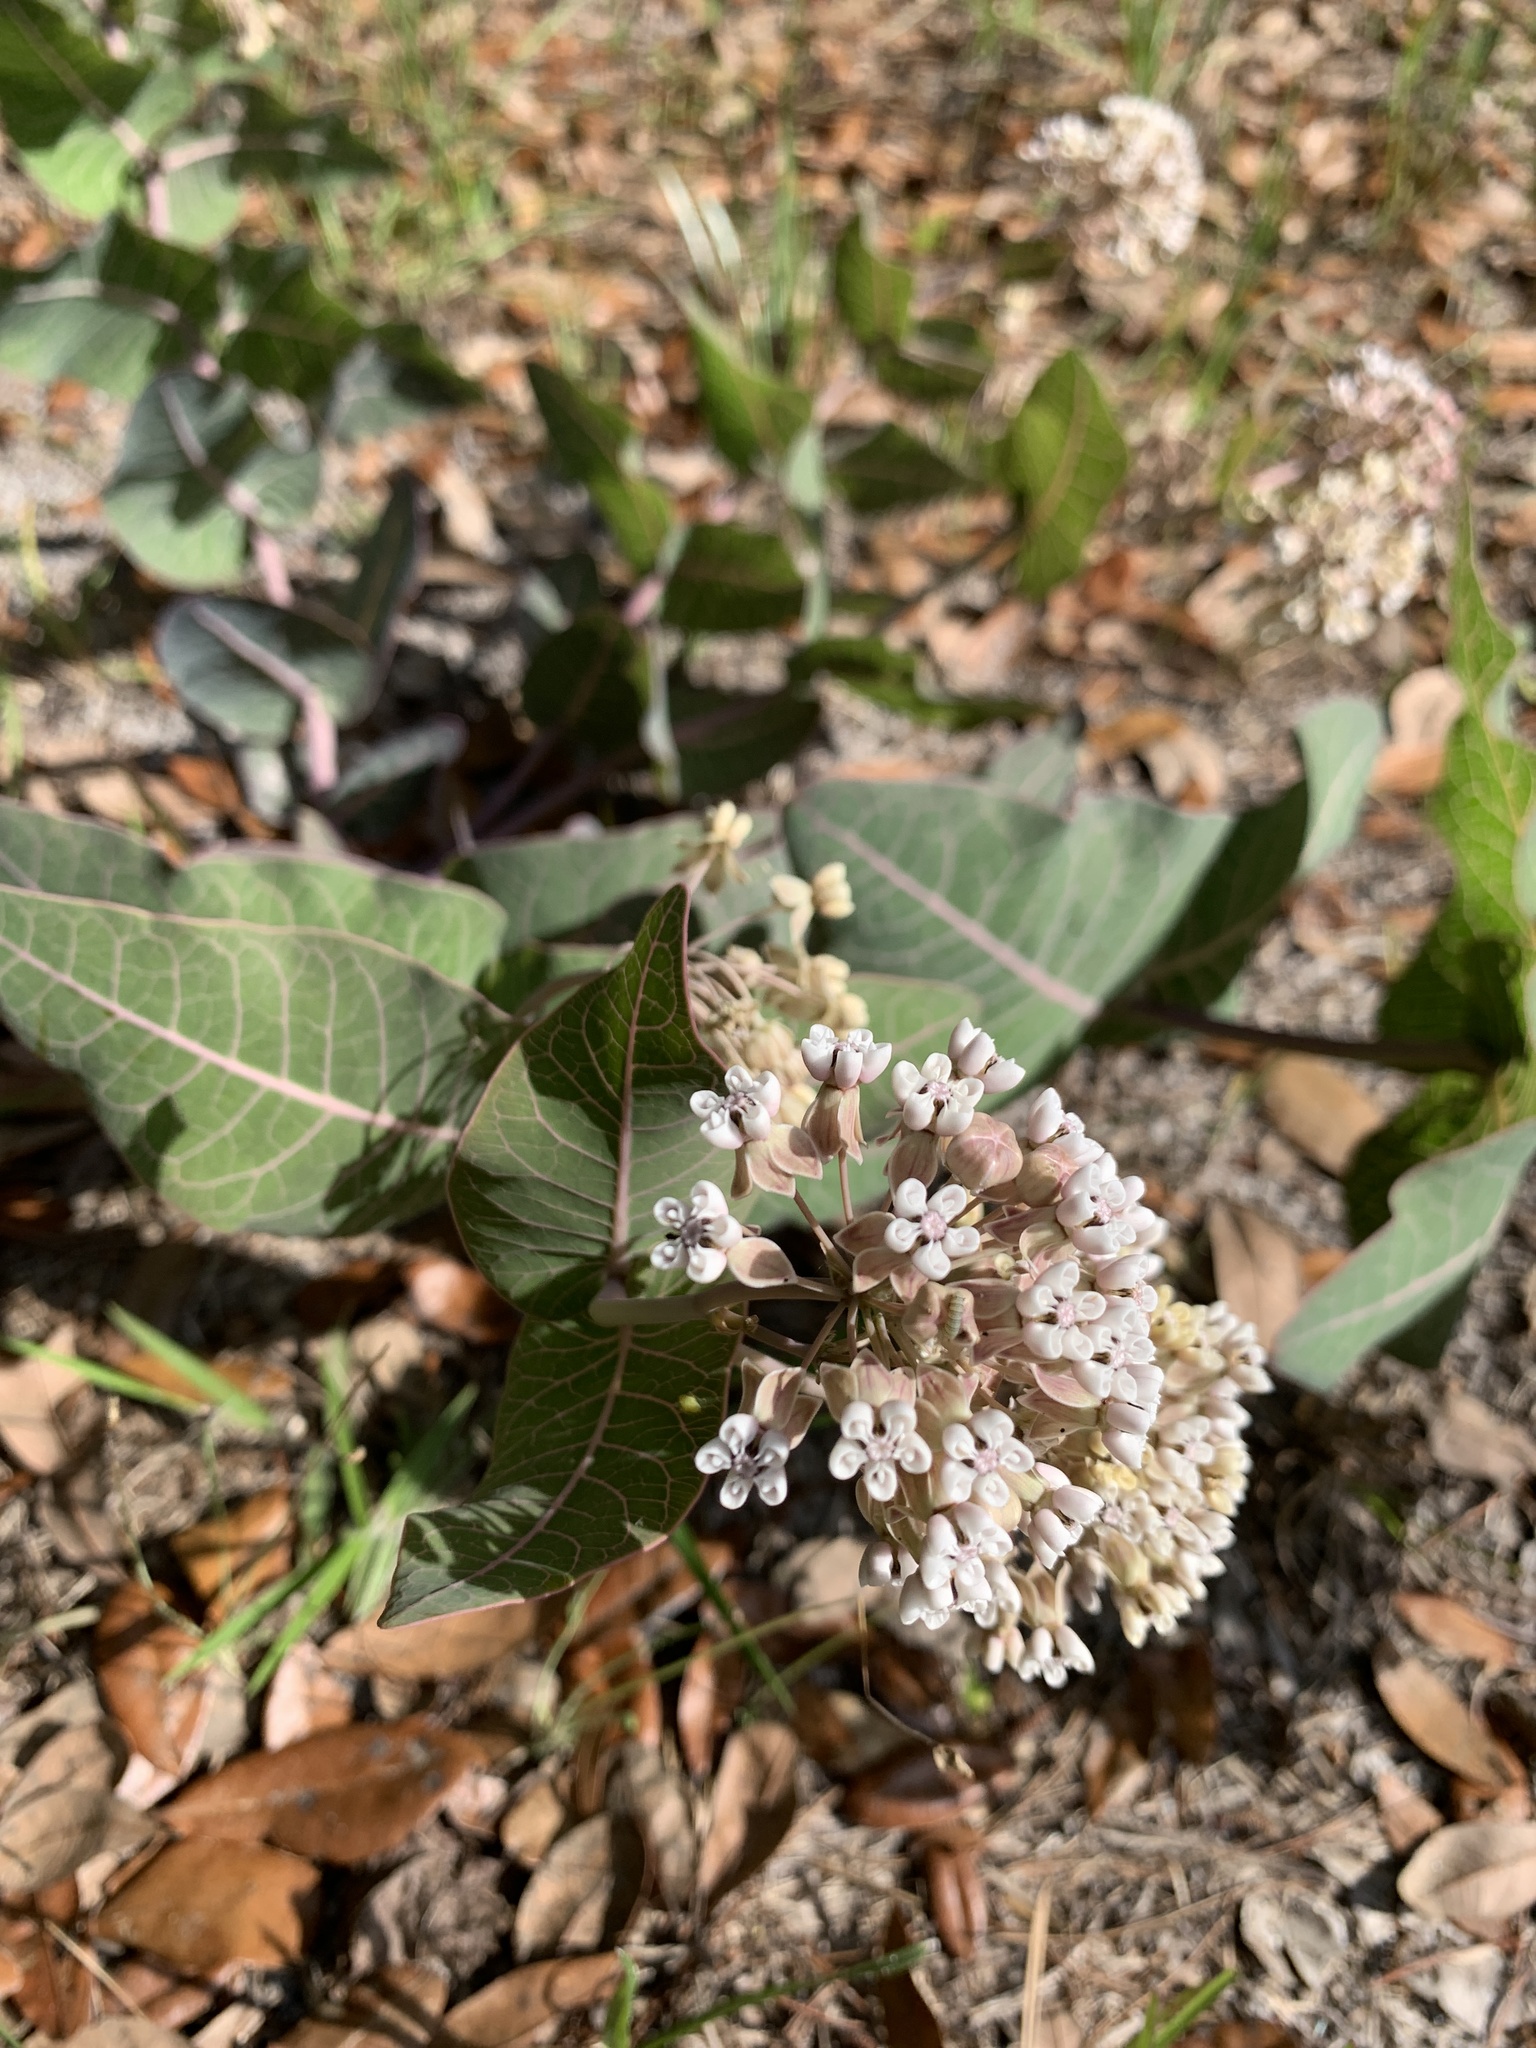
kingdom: Plantae
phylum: Tracheophyta
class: Magnoliopsida
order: Gentianales
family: Apocynaceae
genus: Asclepias
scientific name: Asclepias humistrata
